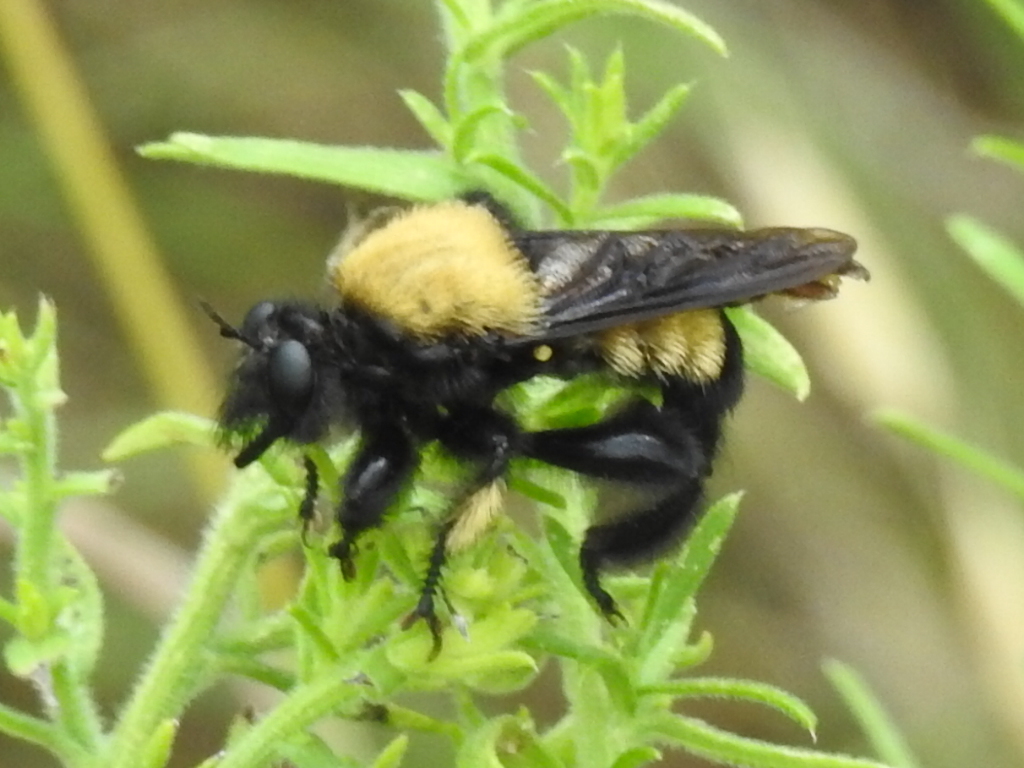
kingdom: Animalia
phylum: Arthropoda
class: Insecta
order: Diptera
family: Asilidae
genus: Laphria
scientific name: Laphria macquarti
